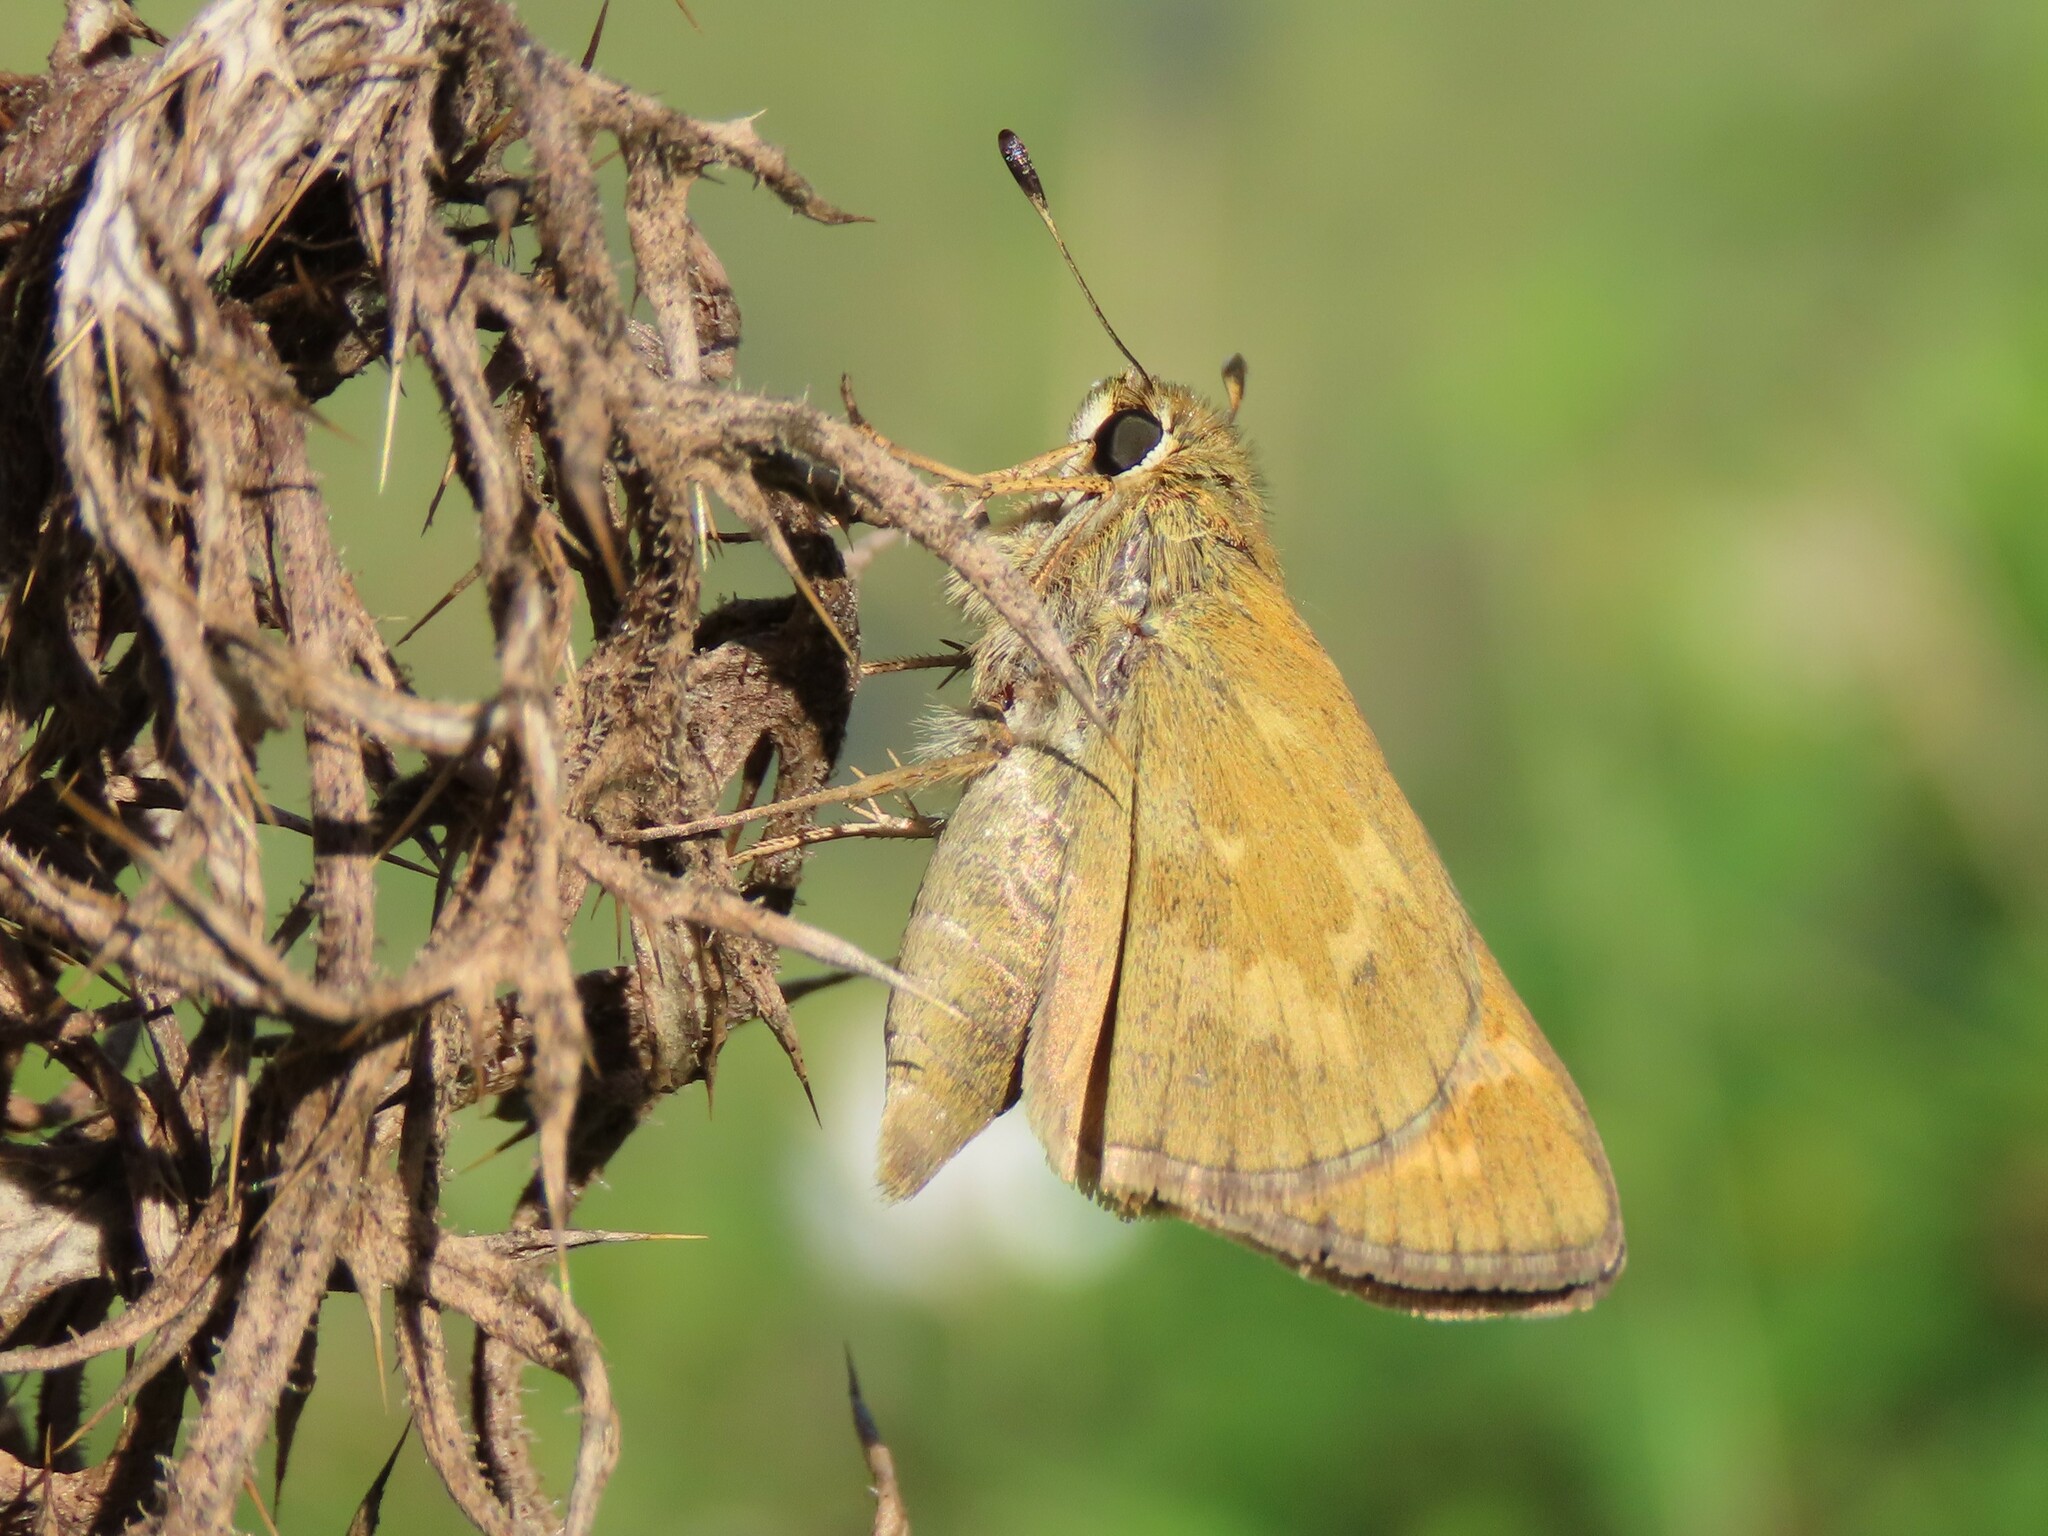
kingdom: Animalia
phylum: Arthropoda
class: Insecta
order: Lepidoptera
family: Hesperiidae
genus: Atalopedes
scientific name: Atalopedes
